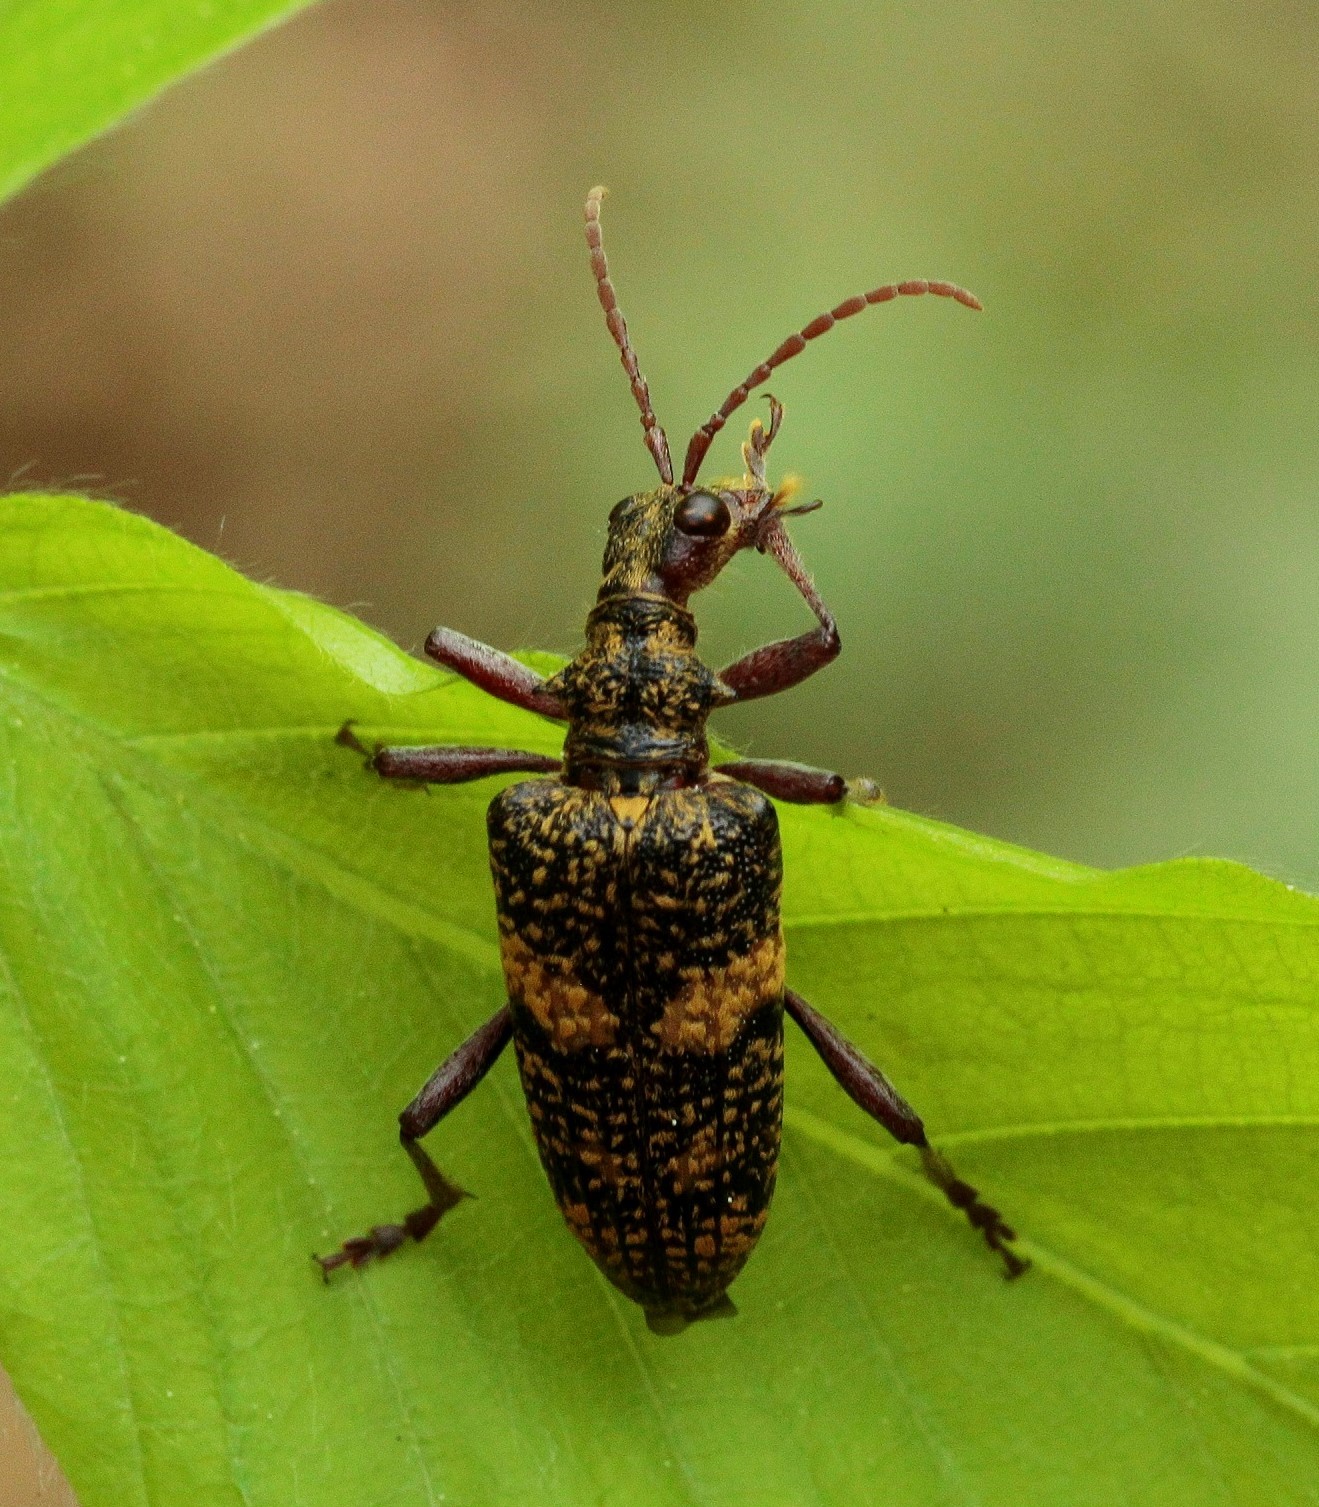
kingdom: Animalia
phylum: Arthropoda
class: Insecta
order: Coleoptera
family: Cerambycidae
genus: Rhagium
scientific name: Rhagium fasciculatum
